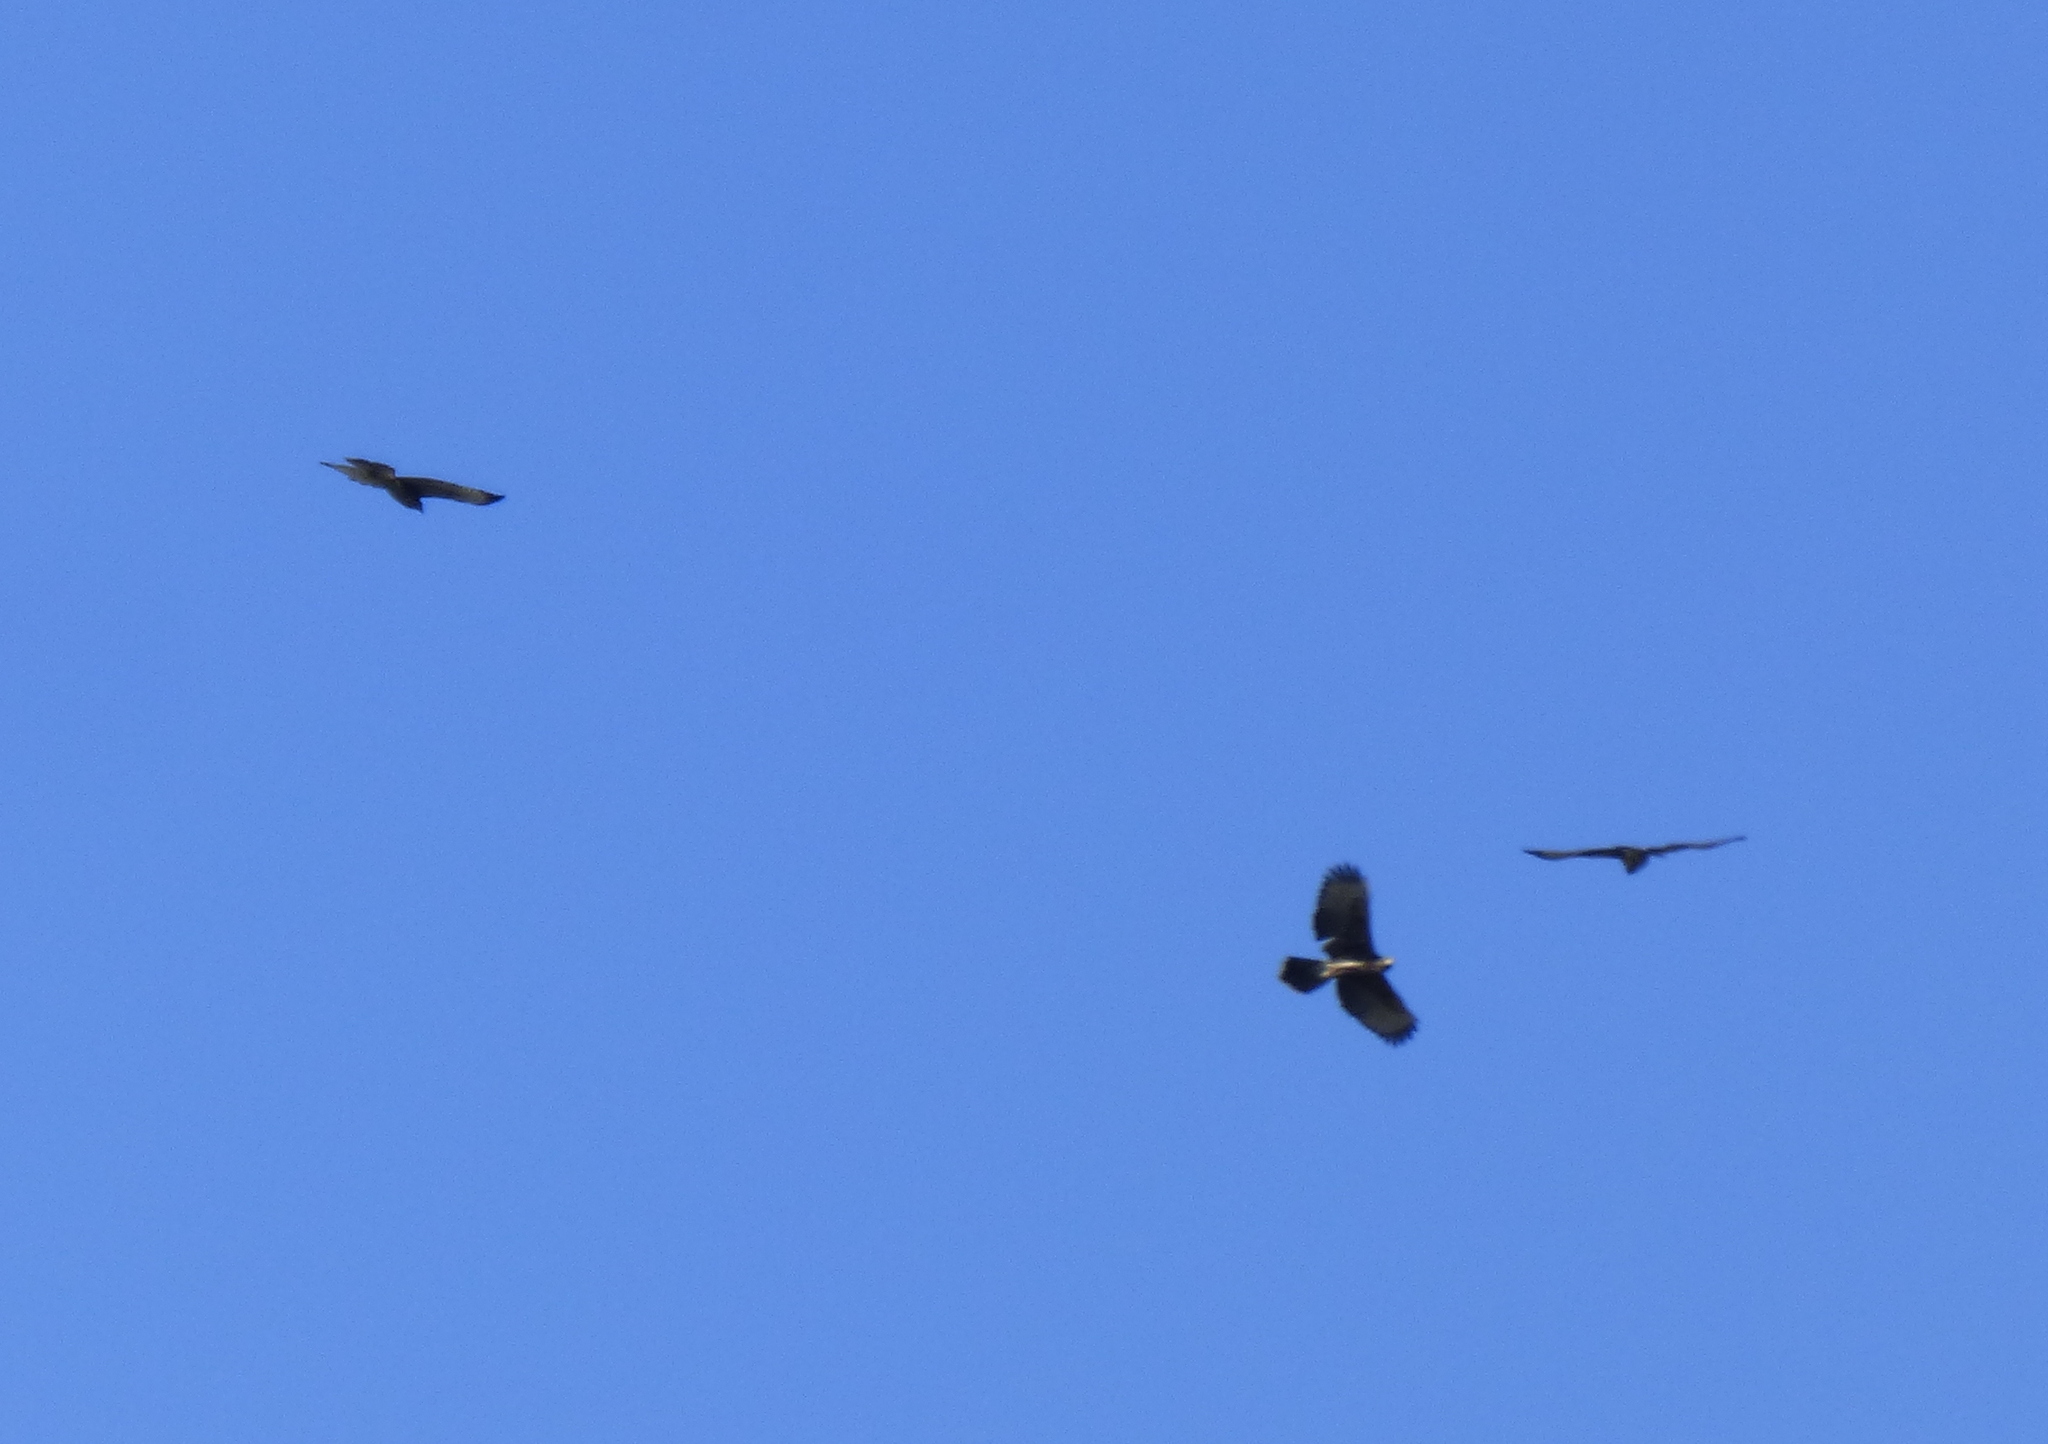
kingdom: Animalia
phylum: Chordata
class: Aves
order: Accipitriformes
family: Accipitridae
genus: Parabuteo
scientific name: Parabuteo unicinctus
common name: Harris's hawk
